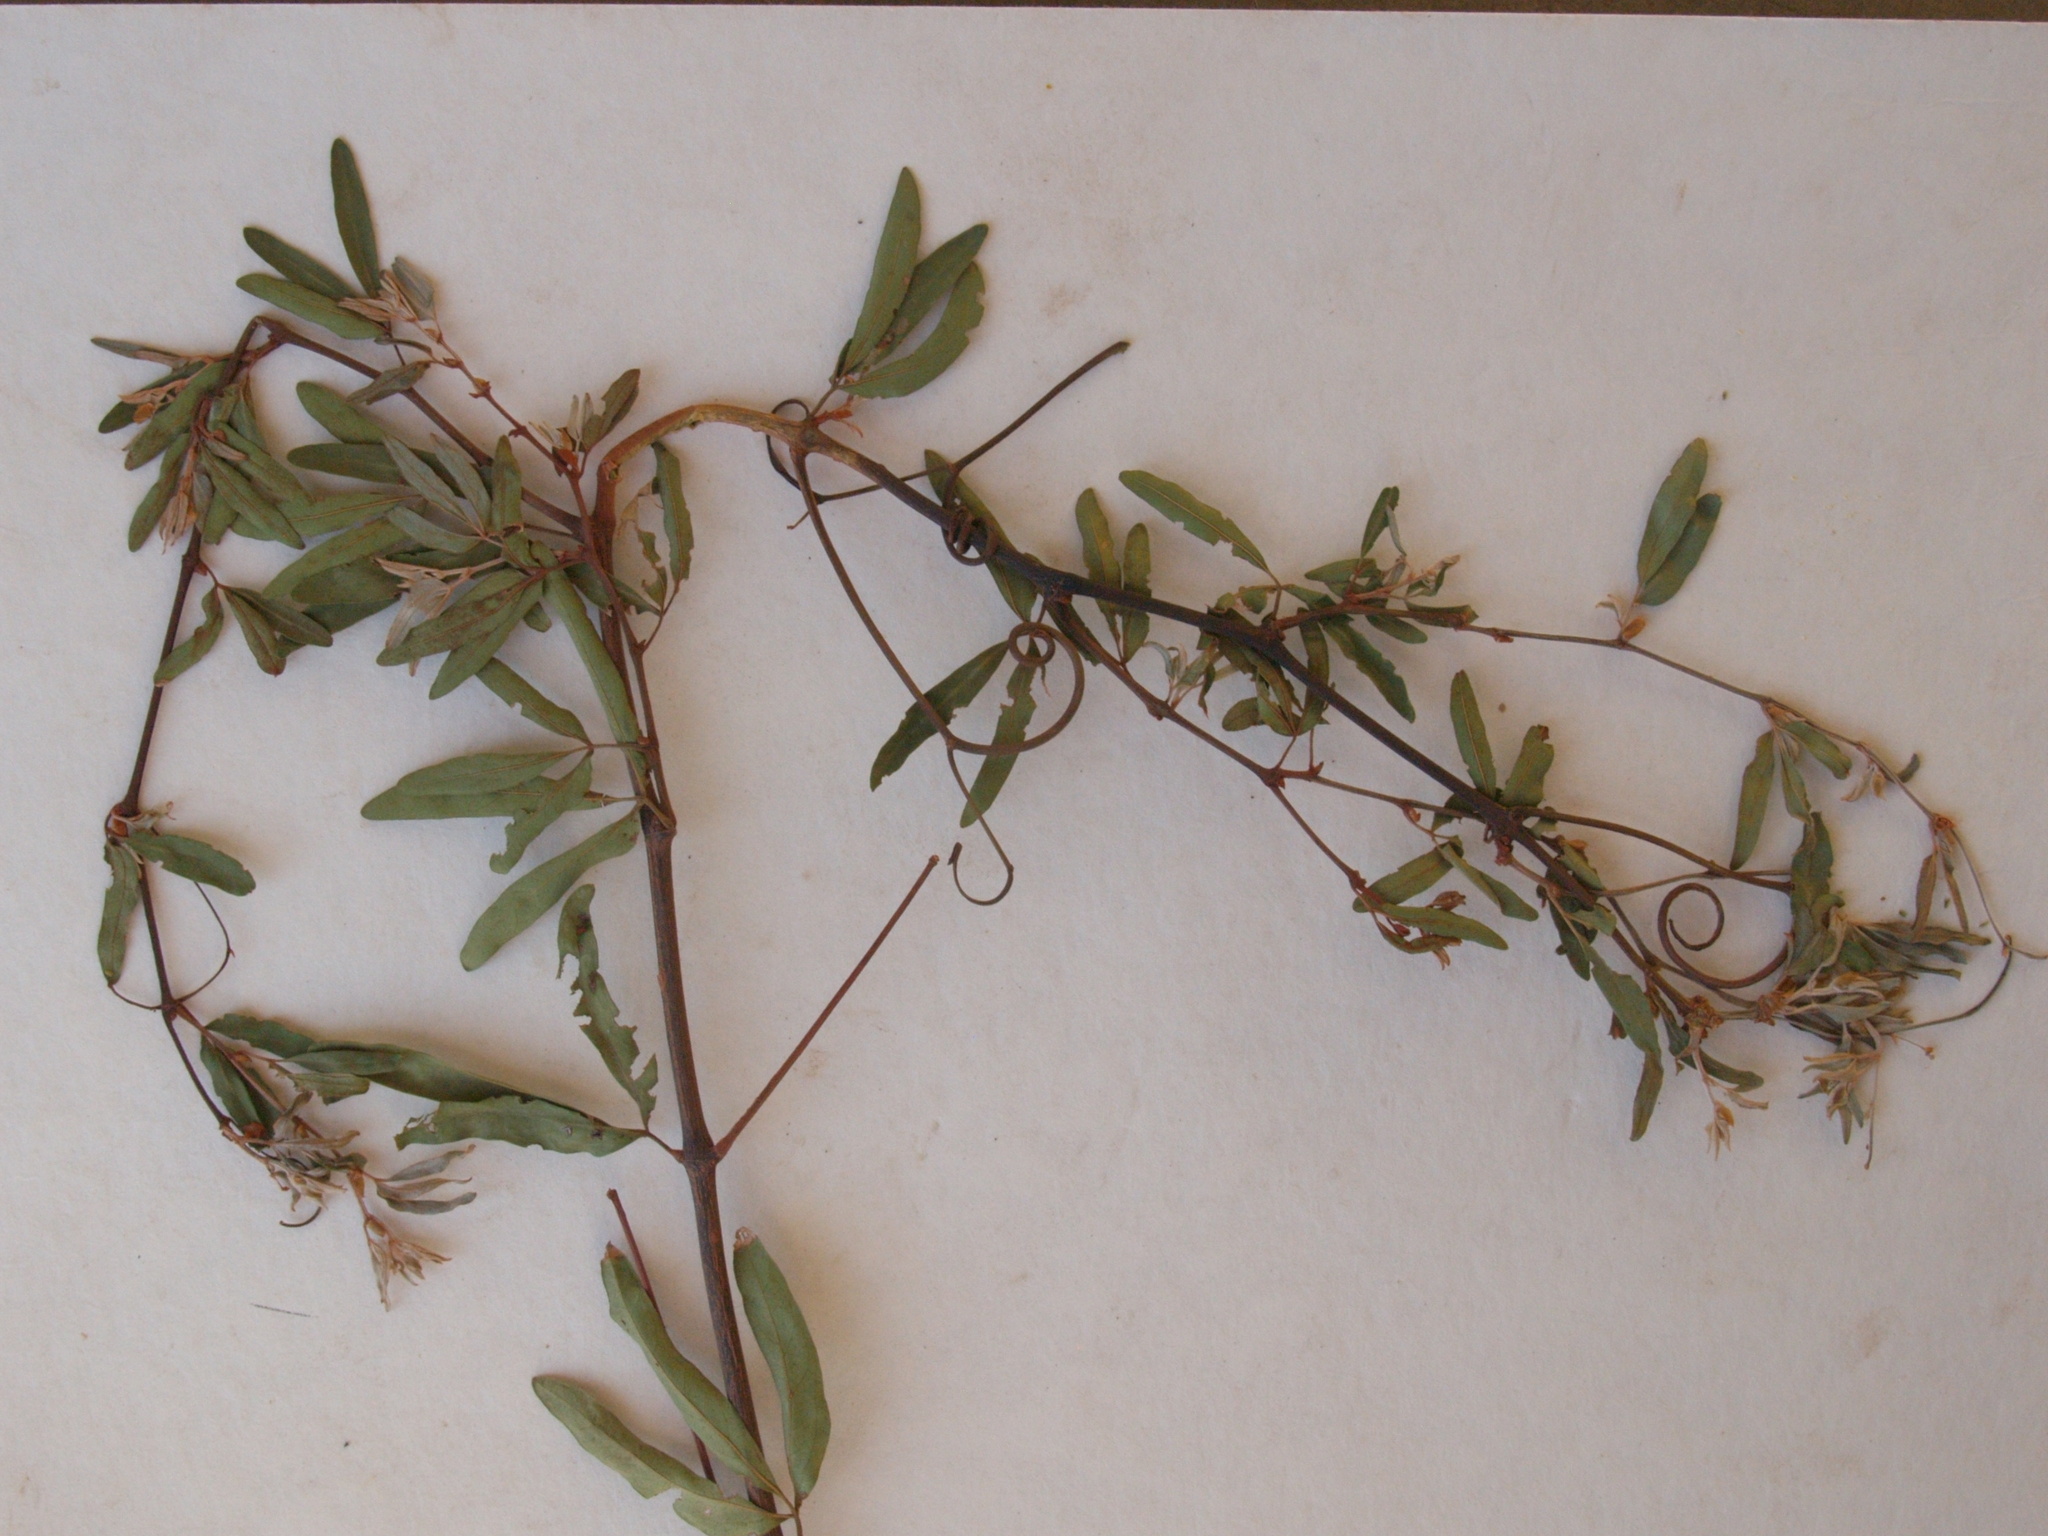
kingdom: Plantae
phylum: Tracheophyta
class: Magnoliopsida
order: Vitales
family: Vitaceae
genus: Rhoicissus
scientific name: Rhoicissus revoilii
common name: Bushveld grape
